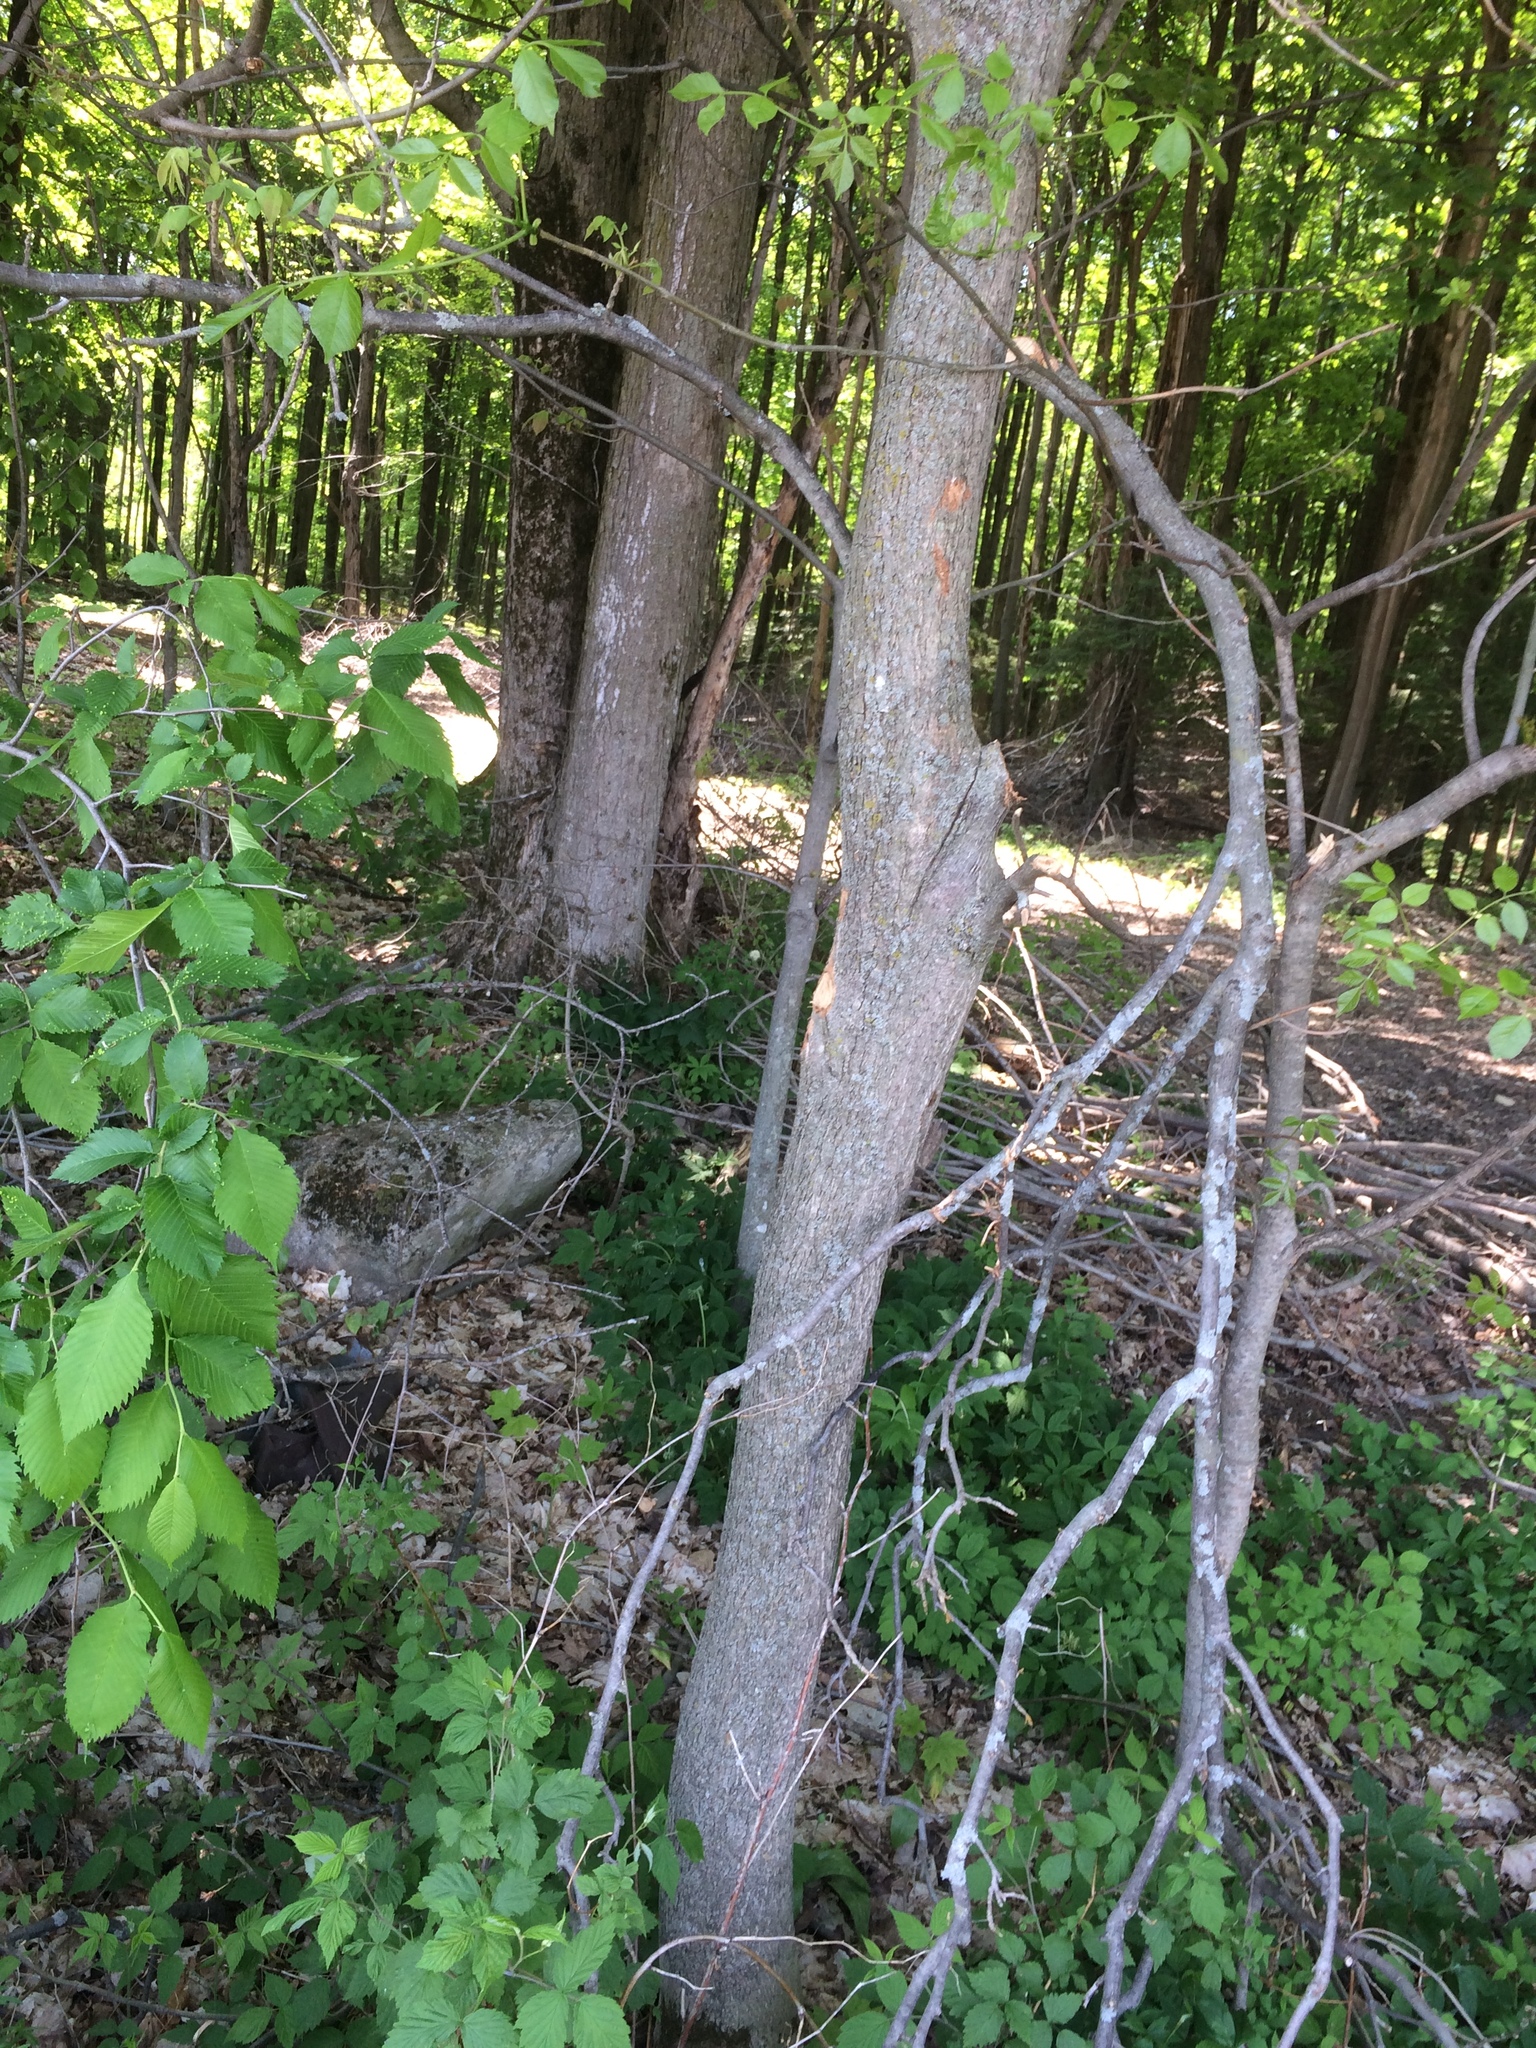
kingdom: Plantae
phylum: Tracheophyta
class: Magnoliopsida
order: Fagales
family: Juglandaceae
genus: Carya
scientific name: Carya cordiformis
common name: Bitternut hickory
